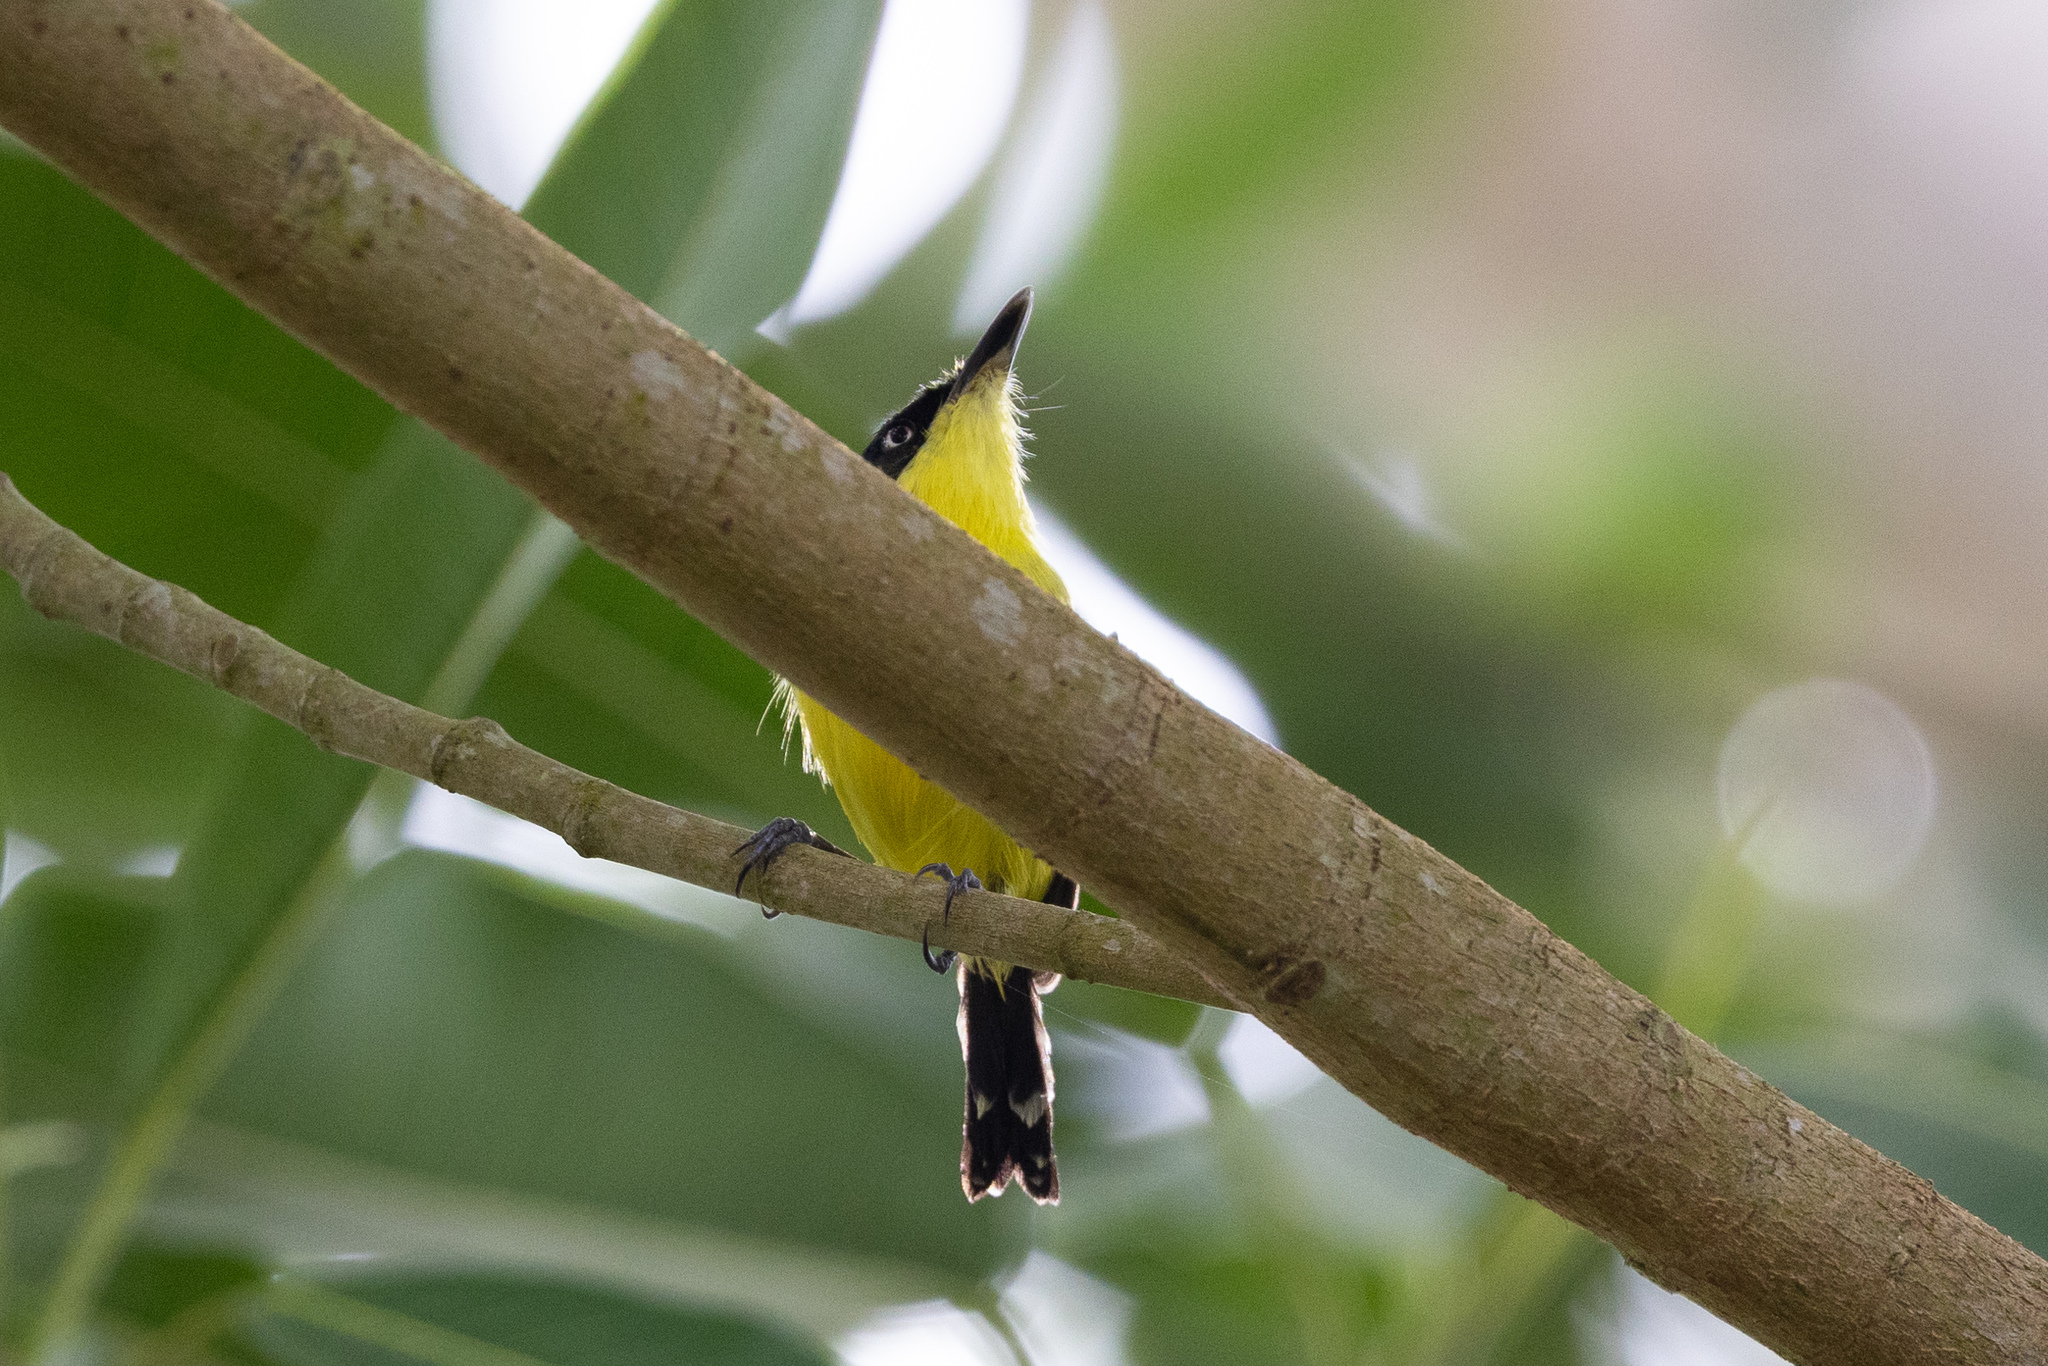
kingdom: Animalia
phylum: Chordata
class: Aves
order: Passeriformes
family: Tyrannidae
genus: Todirostrum
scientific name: Todirostrum cinereum
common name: Common tody-flycatcher
